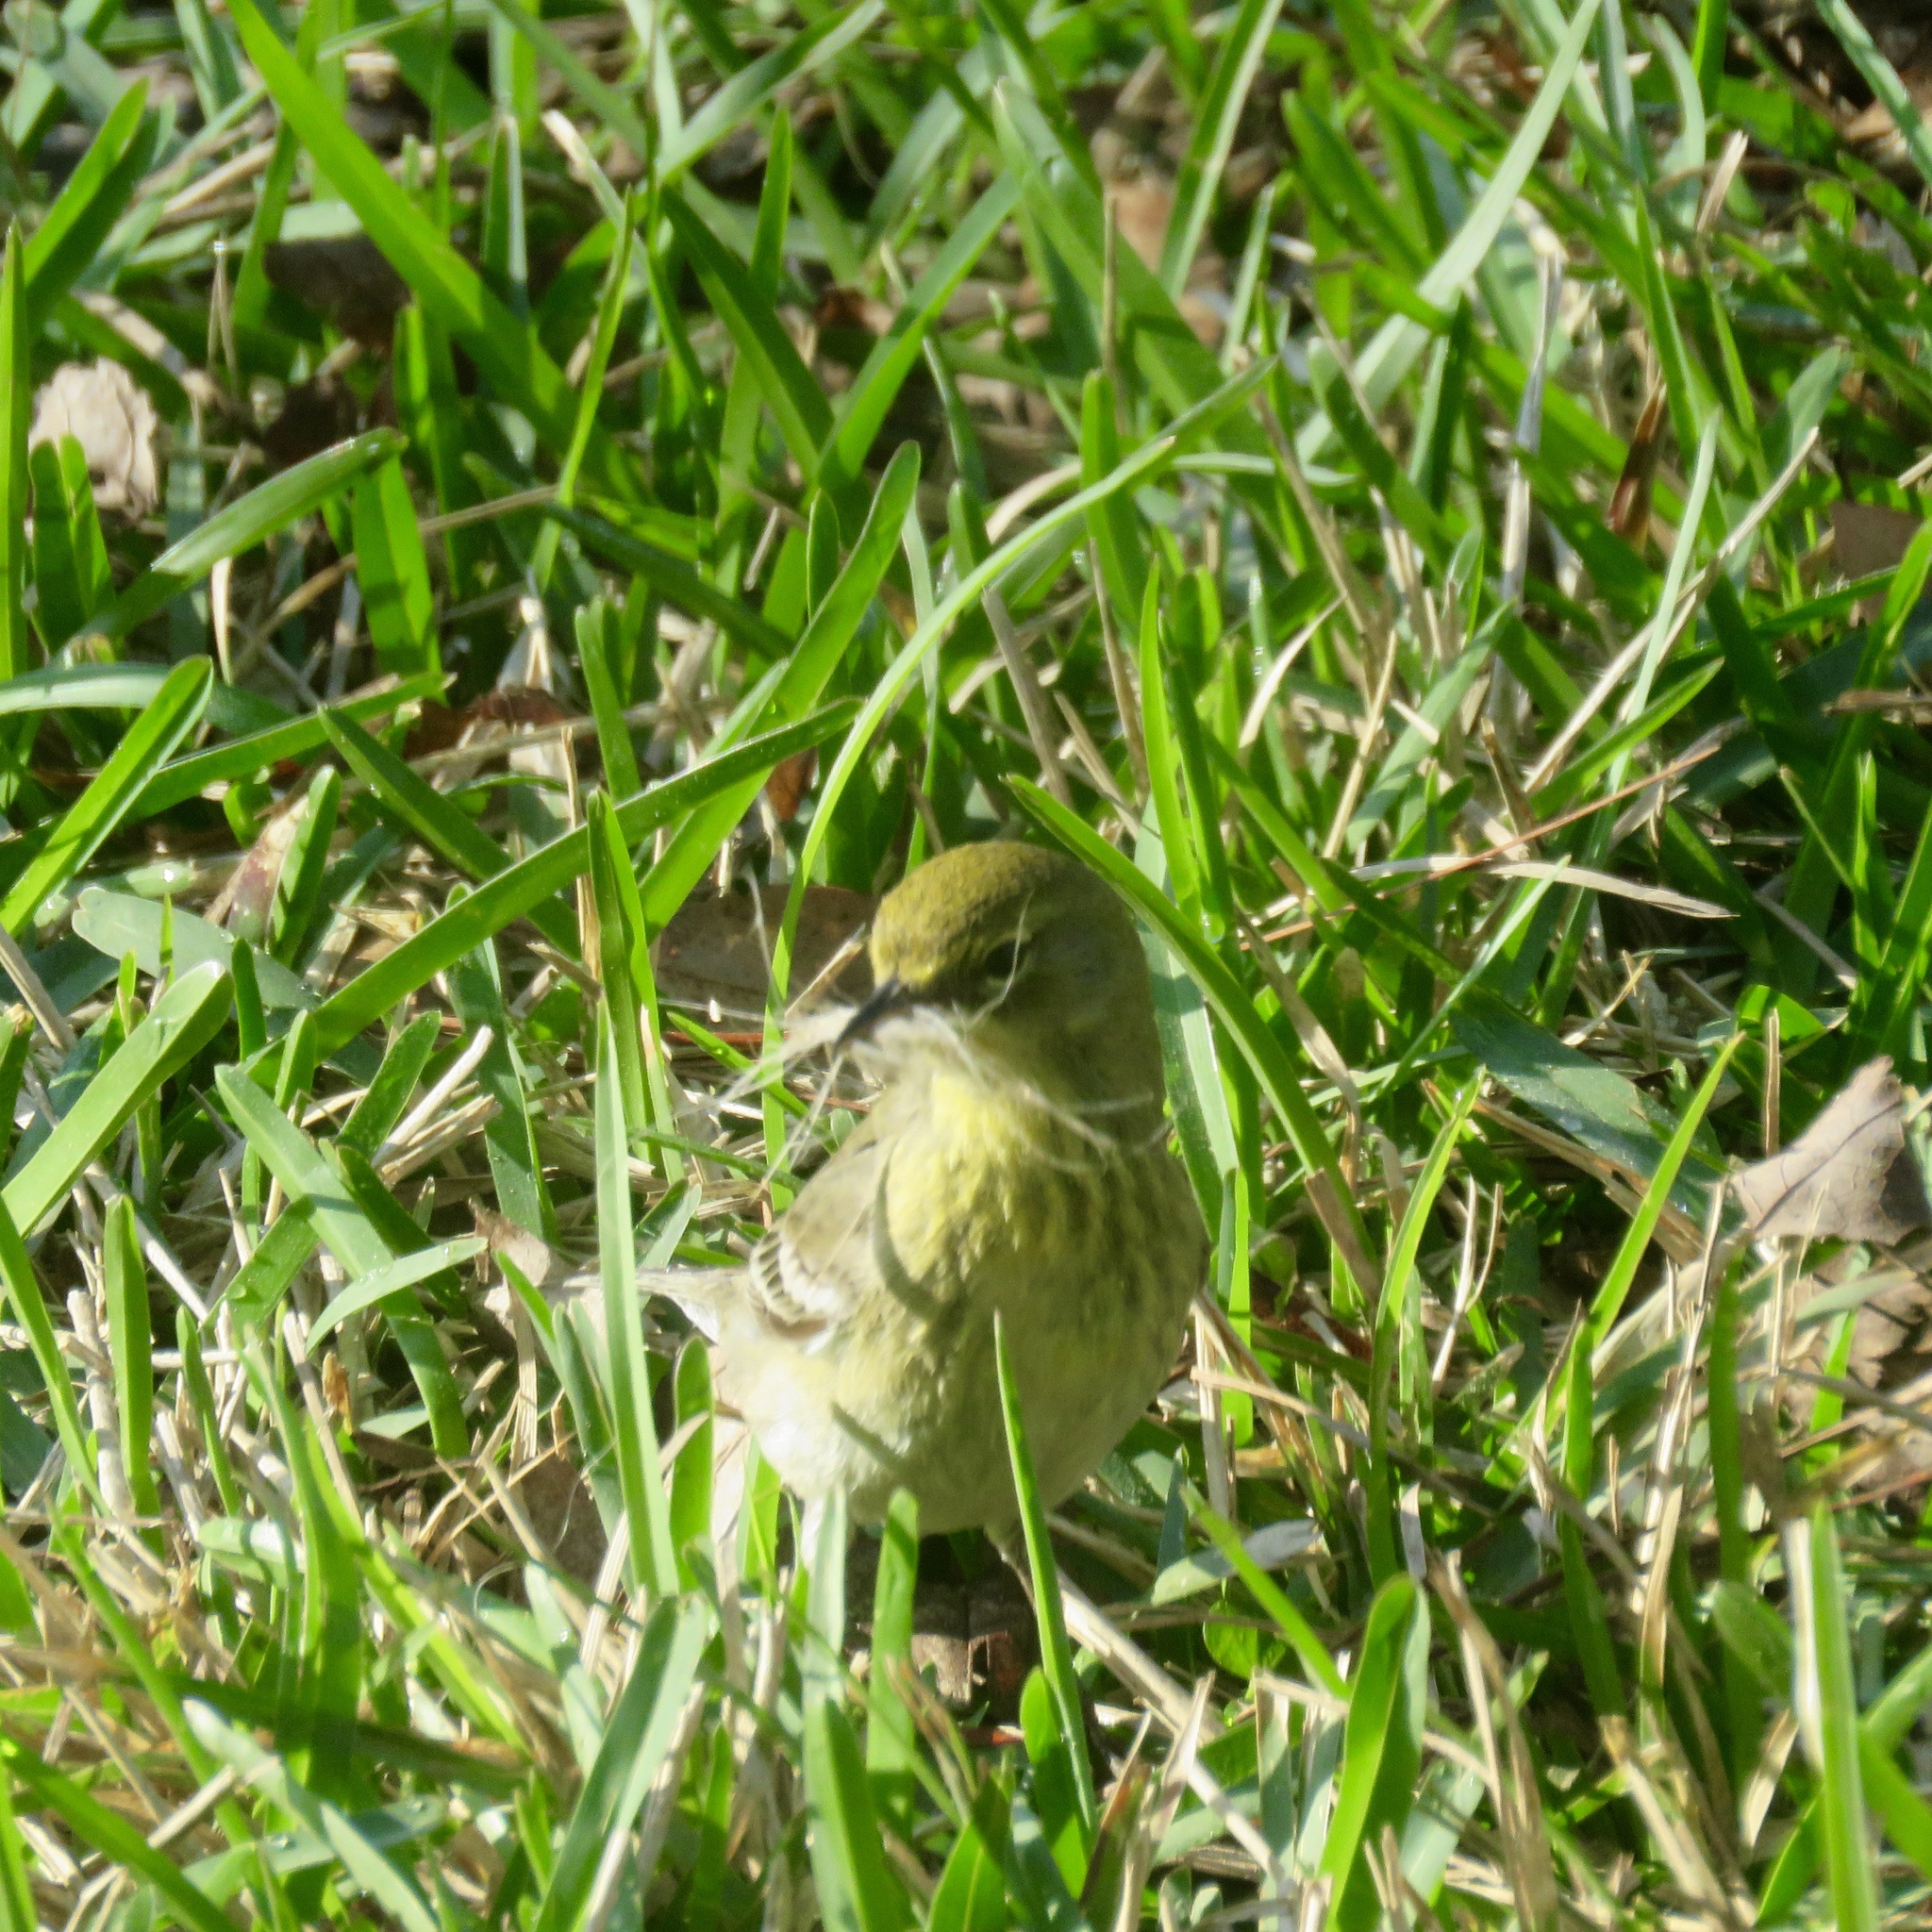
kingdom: Animalia
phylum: Chordata
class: Aves
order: Passeriformes
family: Parulidae
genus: Setophaga
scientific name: Setophaga pinus
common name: Pine warbler
